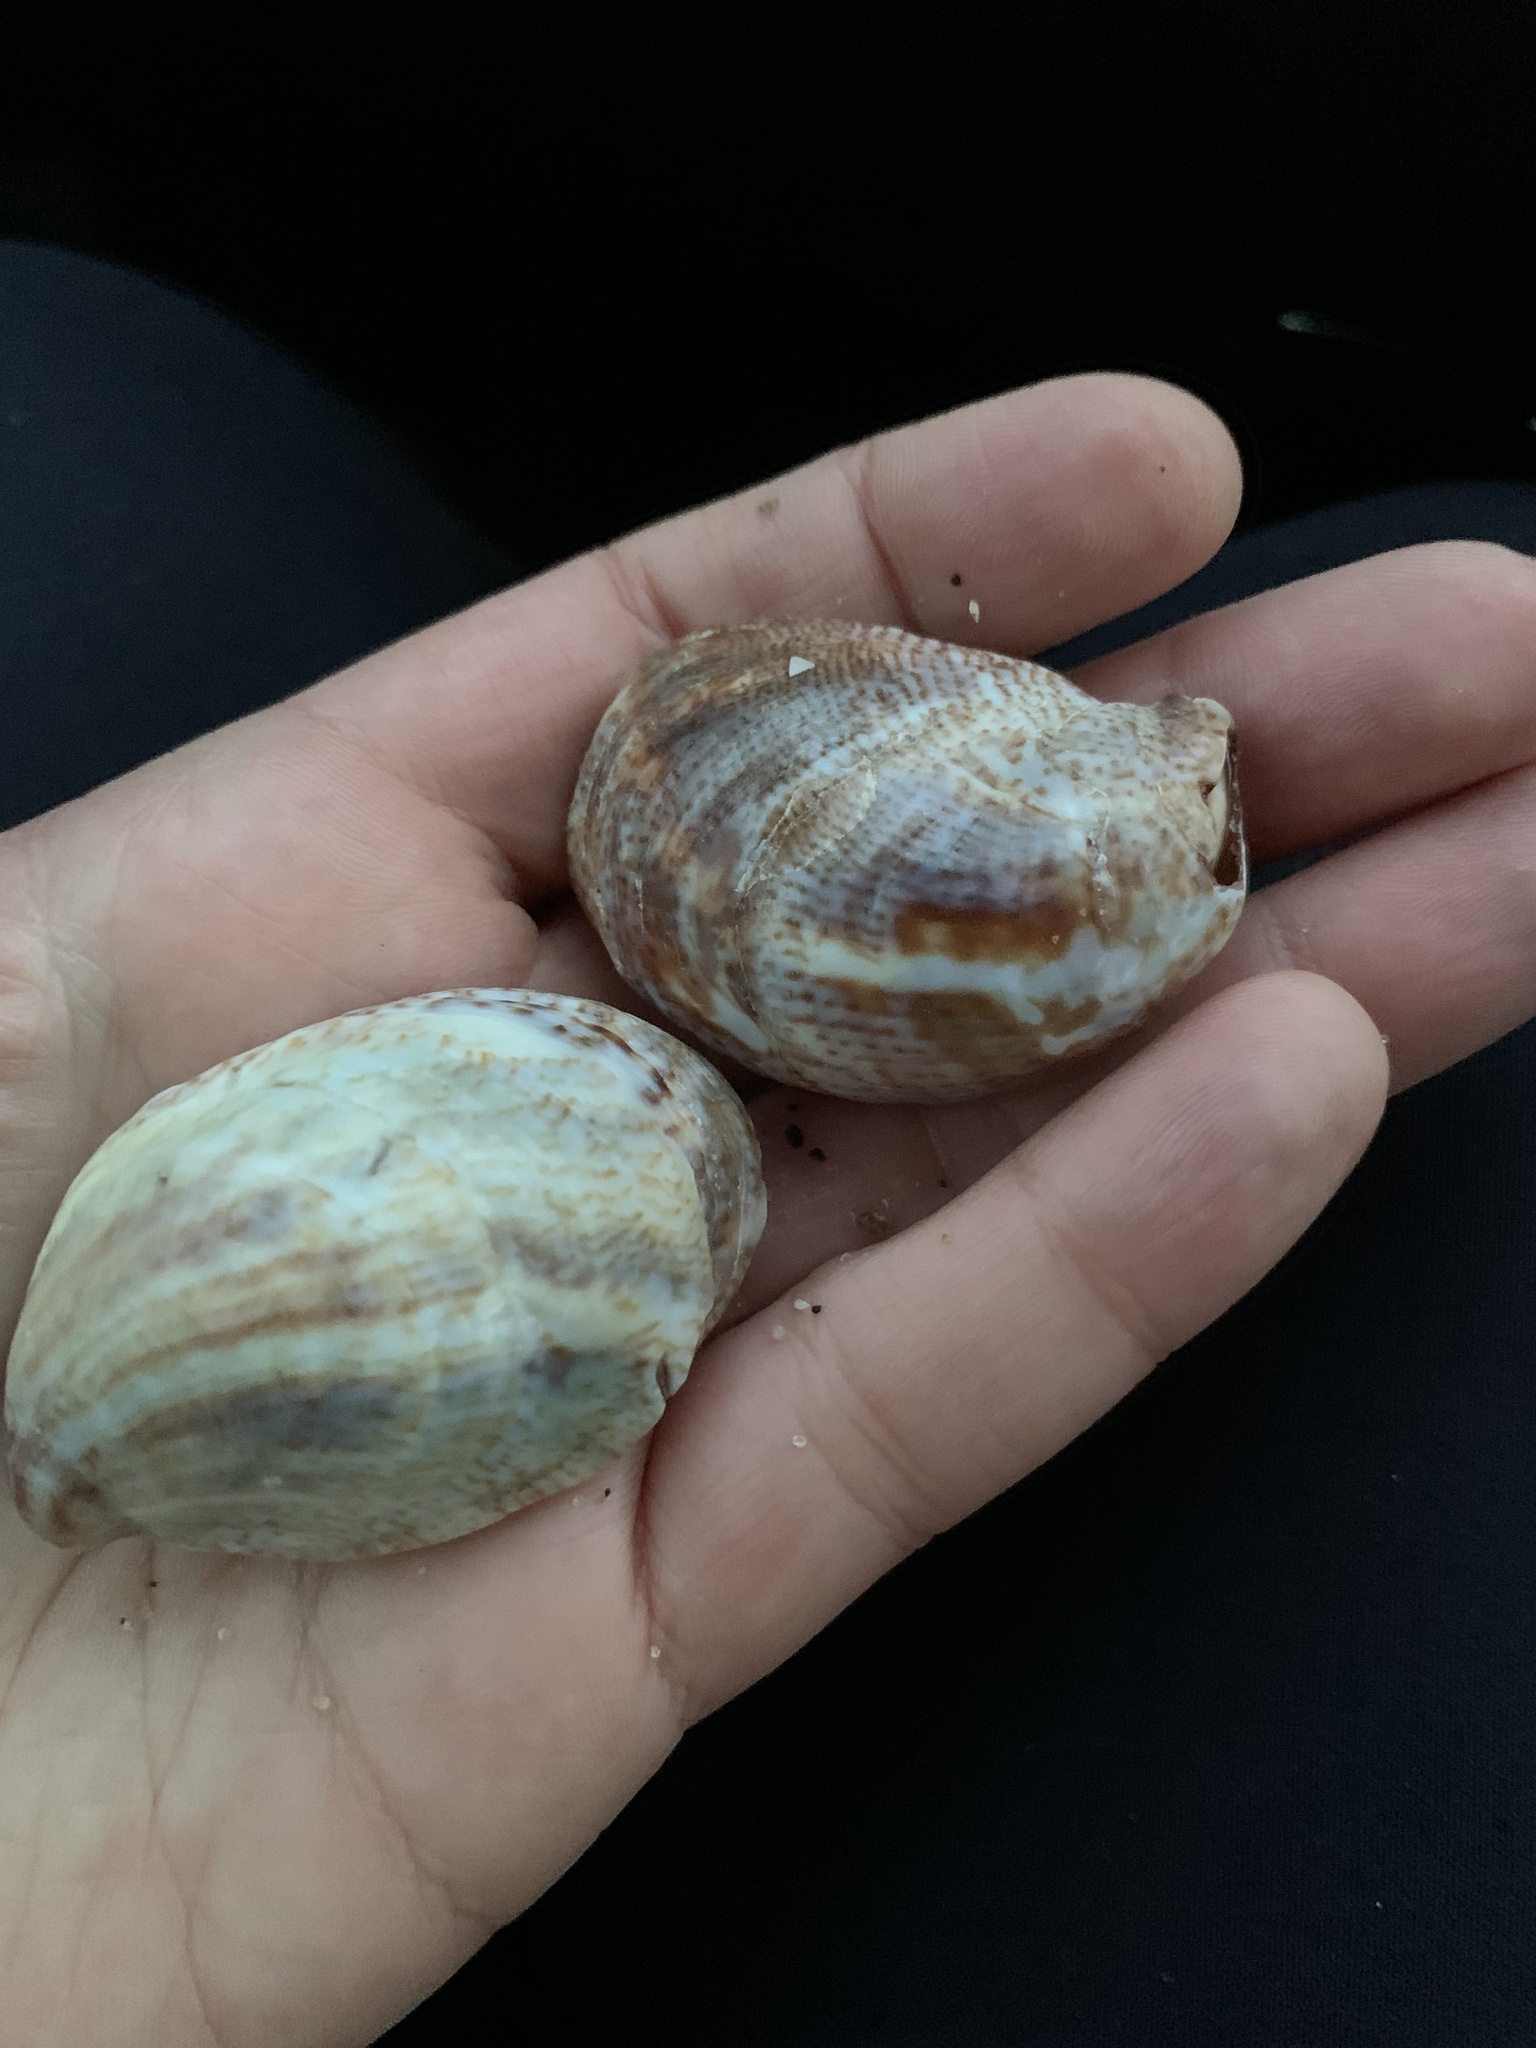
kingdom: Animalia
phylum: Mollusca
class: Gastropoda
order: Littorinimorpha
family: Calyptraeidae
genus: Crepidula
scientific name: Crepidula fornicata
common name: Slipper limpet
